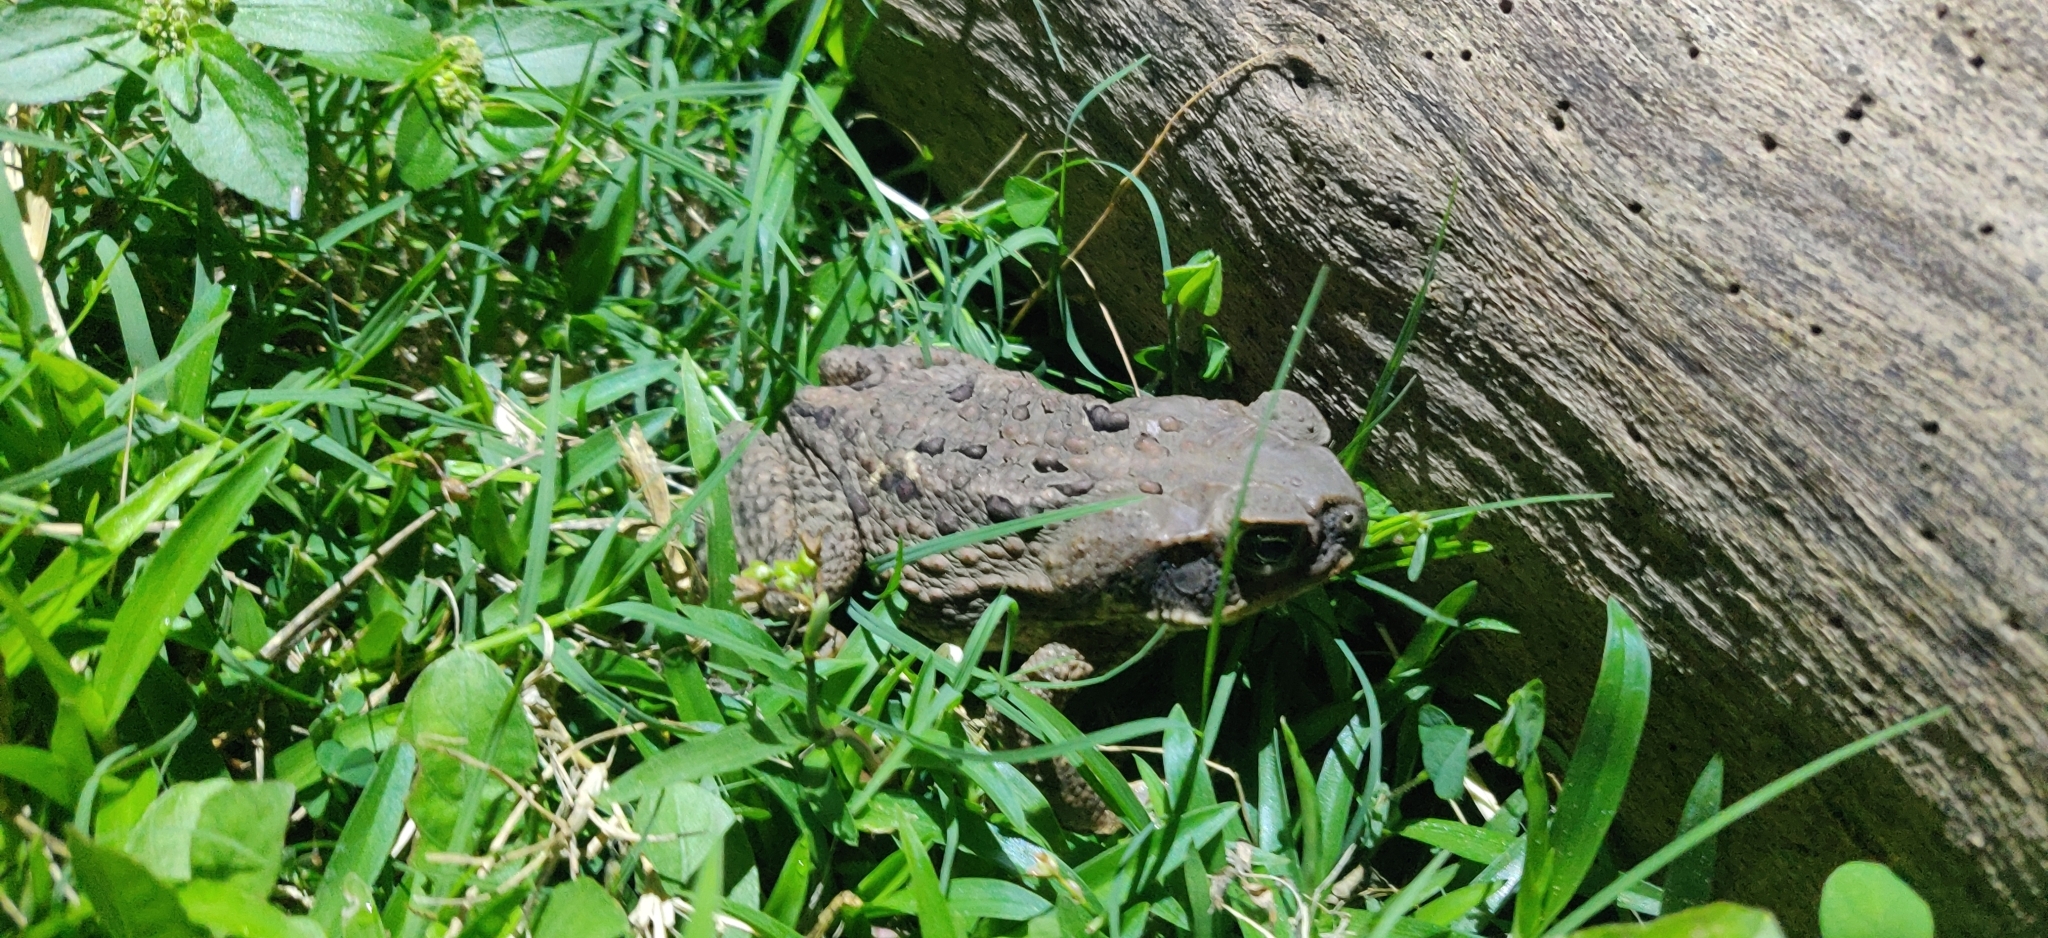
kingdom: Animalia
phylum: Chordata
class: Amphibia
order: Anura
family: Bufonidae
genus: Rhinella
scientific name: Rhinella marina
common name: Cane toad
